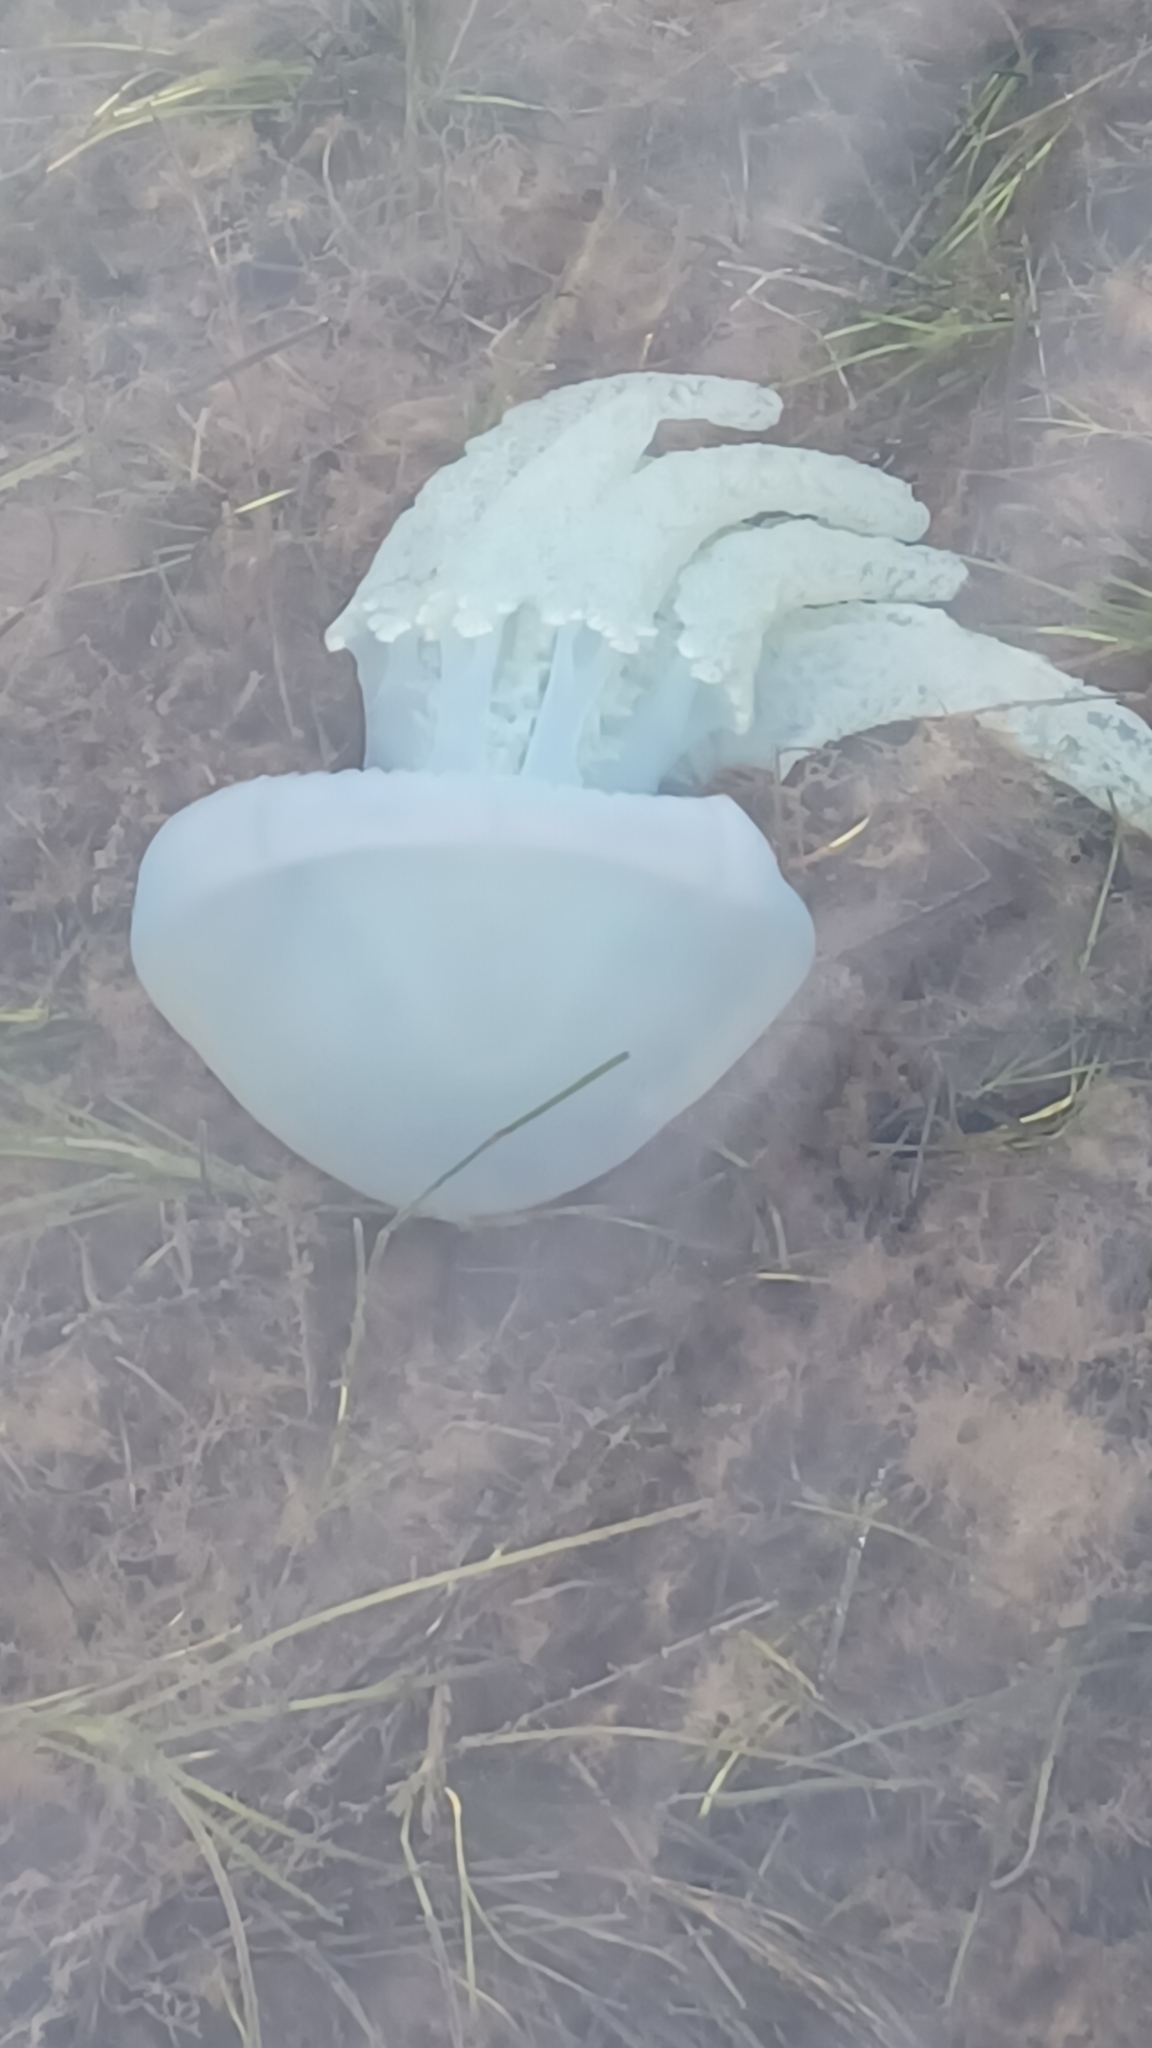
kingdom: Animalia
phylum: Cnidaria
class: Scyphozoa
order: Rhizostomeae
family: Catostylidae
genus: Catostylus
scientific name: Catostylus mosaicus
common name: Blue blubber
